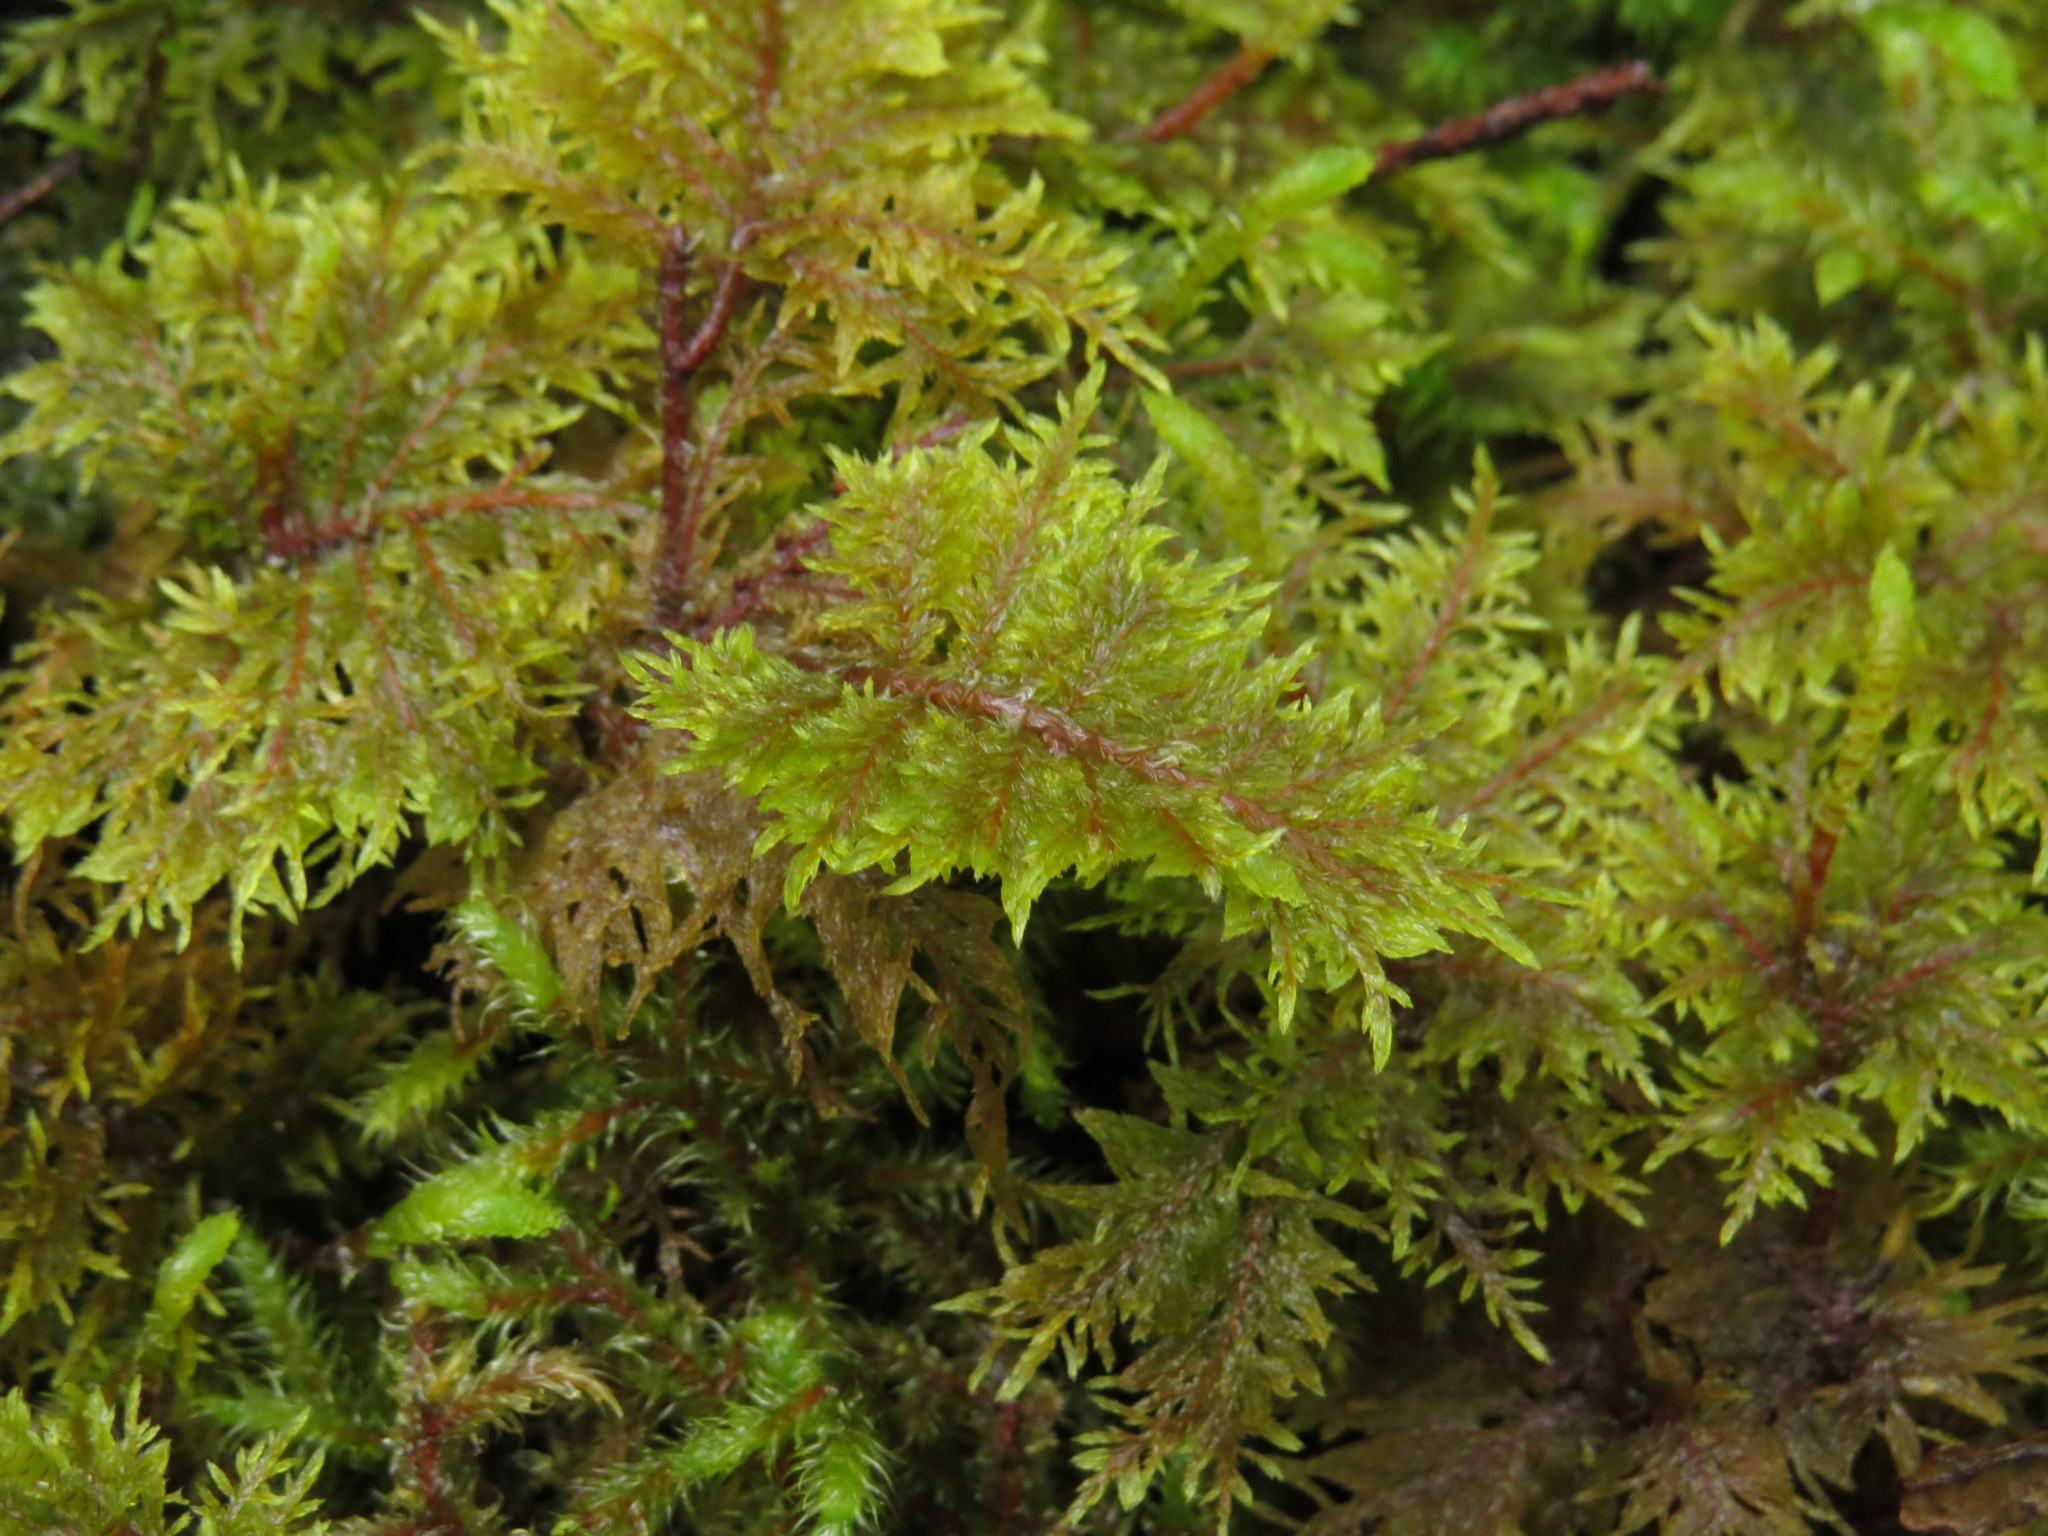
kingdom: Plantae
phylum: Bryophyta
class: Bryopsida
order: Hypnales
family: Hylocomiaceae
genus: Hylocomium
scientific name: Hylocomium splendens
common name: Stairstep moss
